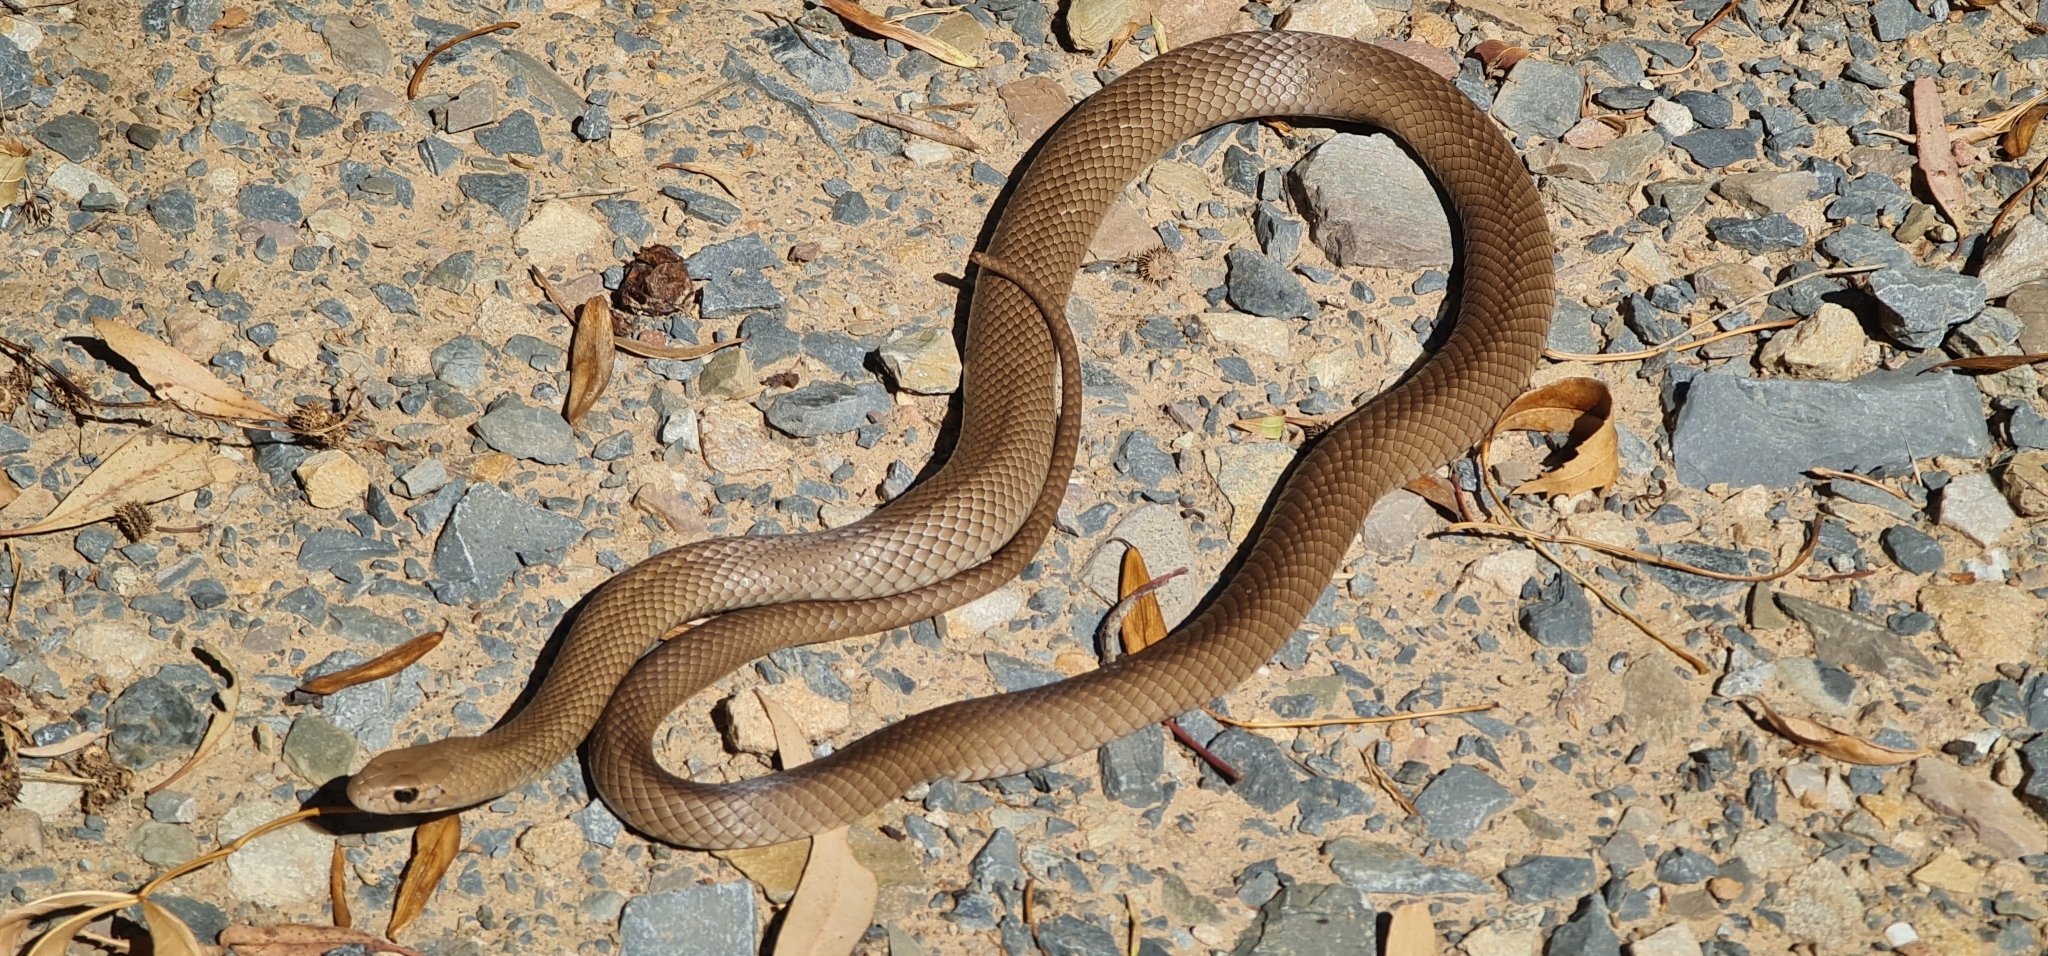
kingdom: Animalia
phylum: Chordata
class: Squamata
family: Elapidae
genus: Pseudonaja
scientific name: Pseudonaja textilis
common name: Eastern brown snake
